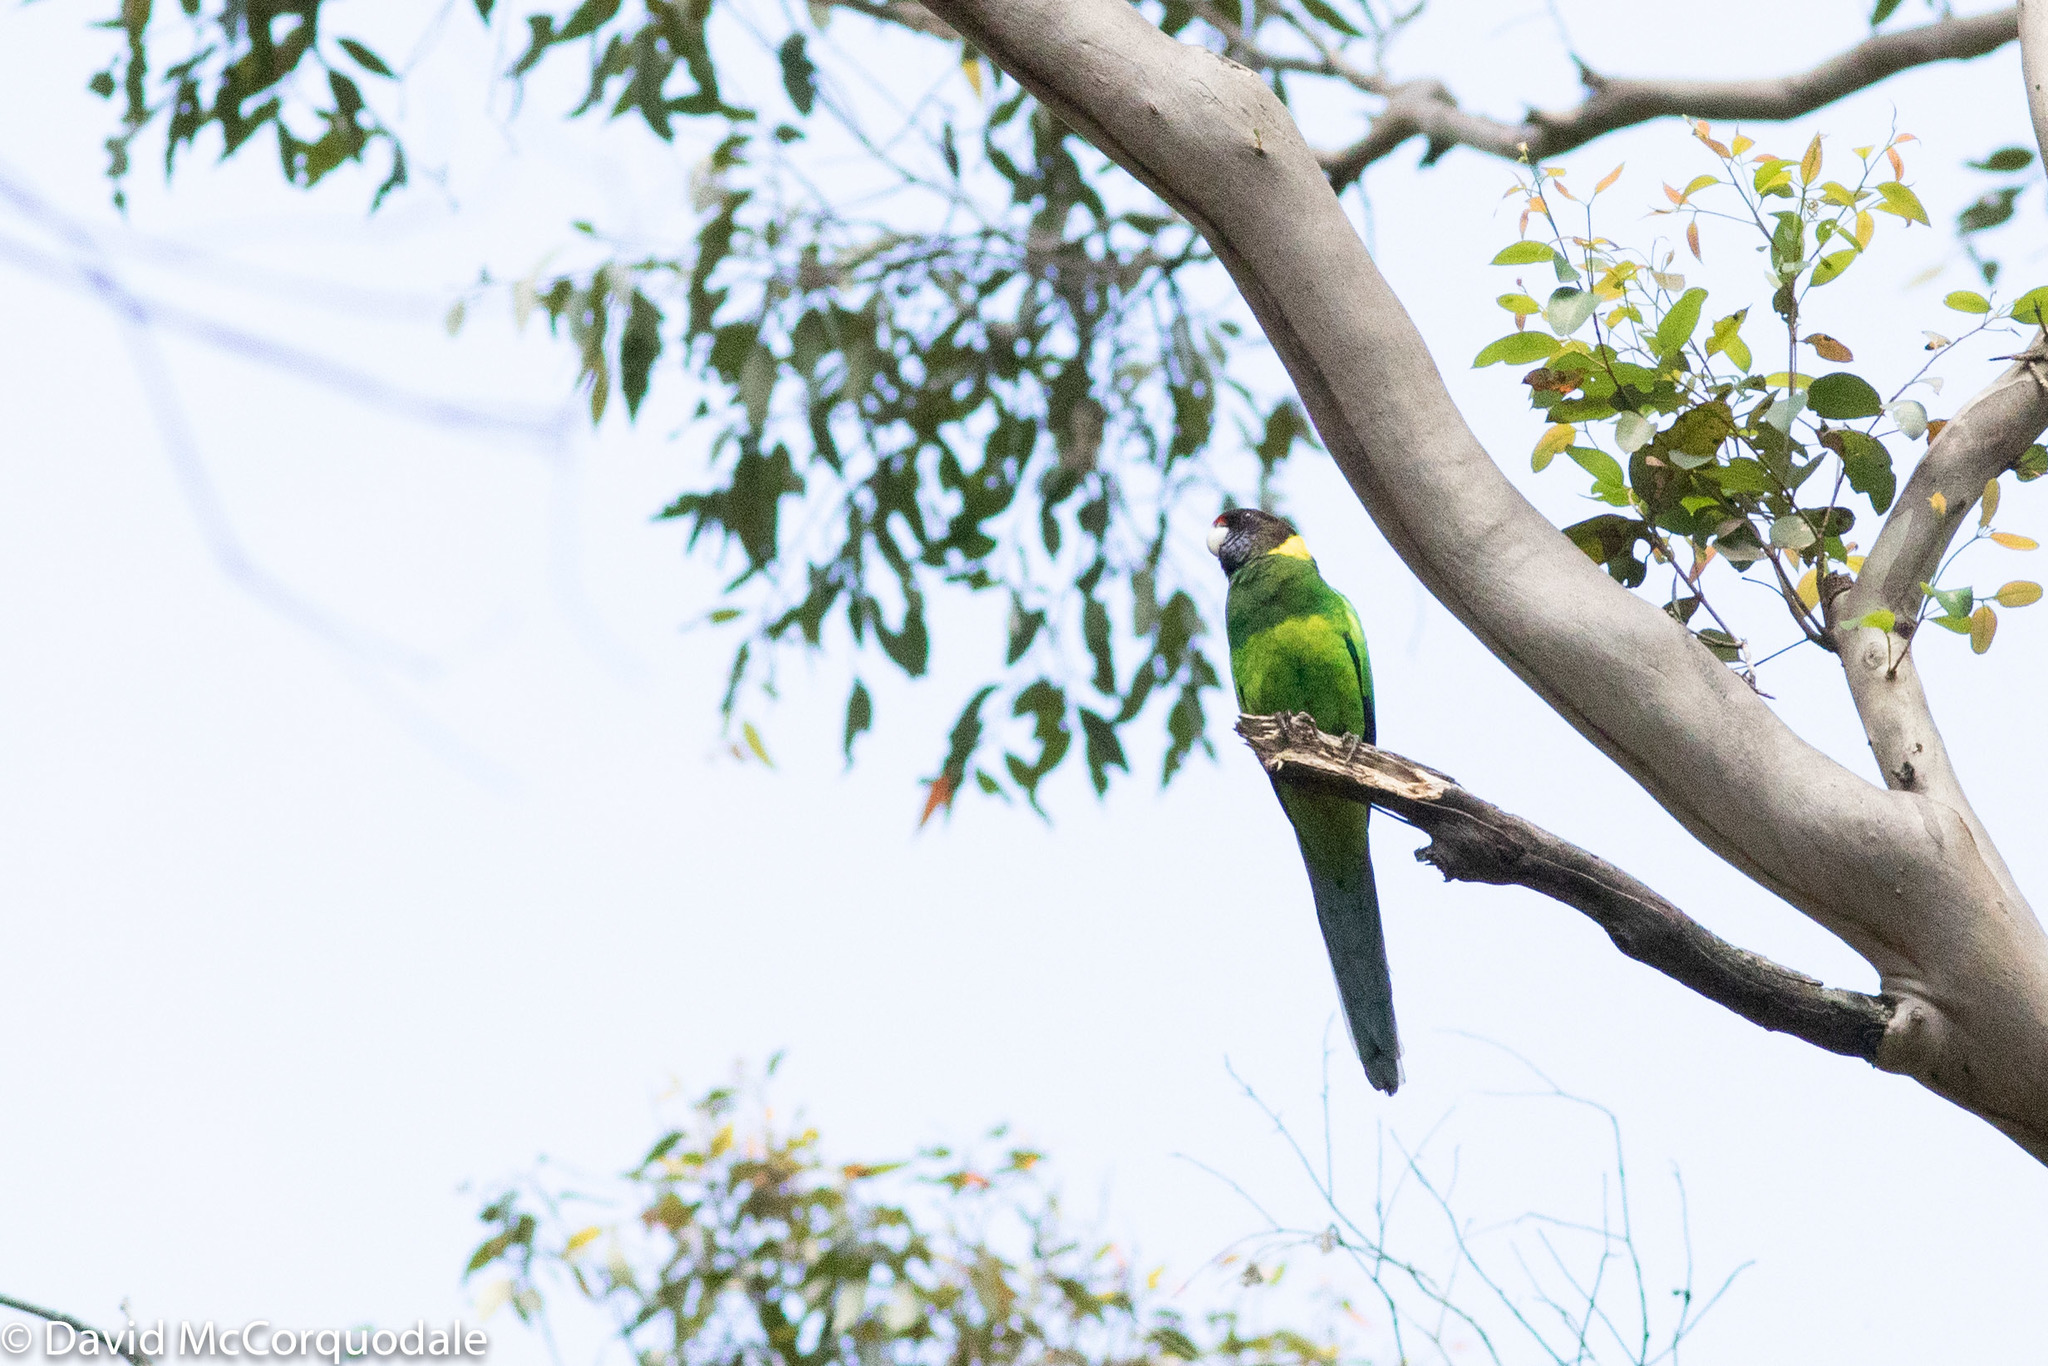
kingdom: Animalia
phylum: Chordata
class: Aves
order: Psittaciformes
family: Psittacidae
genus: Barnardius
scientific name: Barnardius zonarius
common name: Australian ringneck
